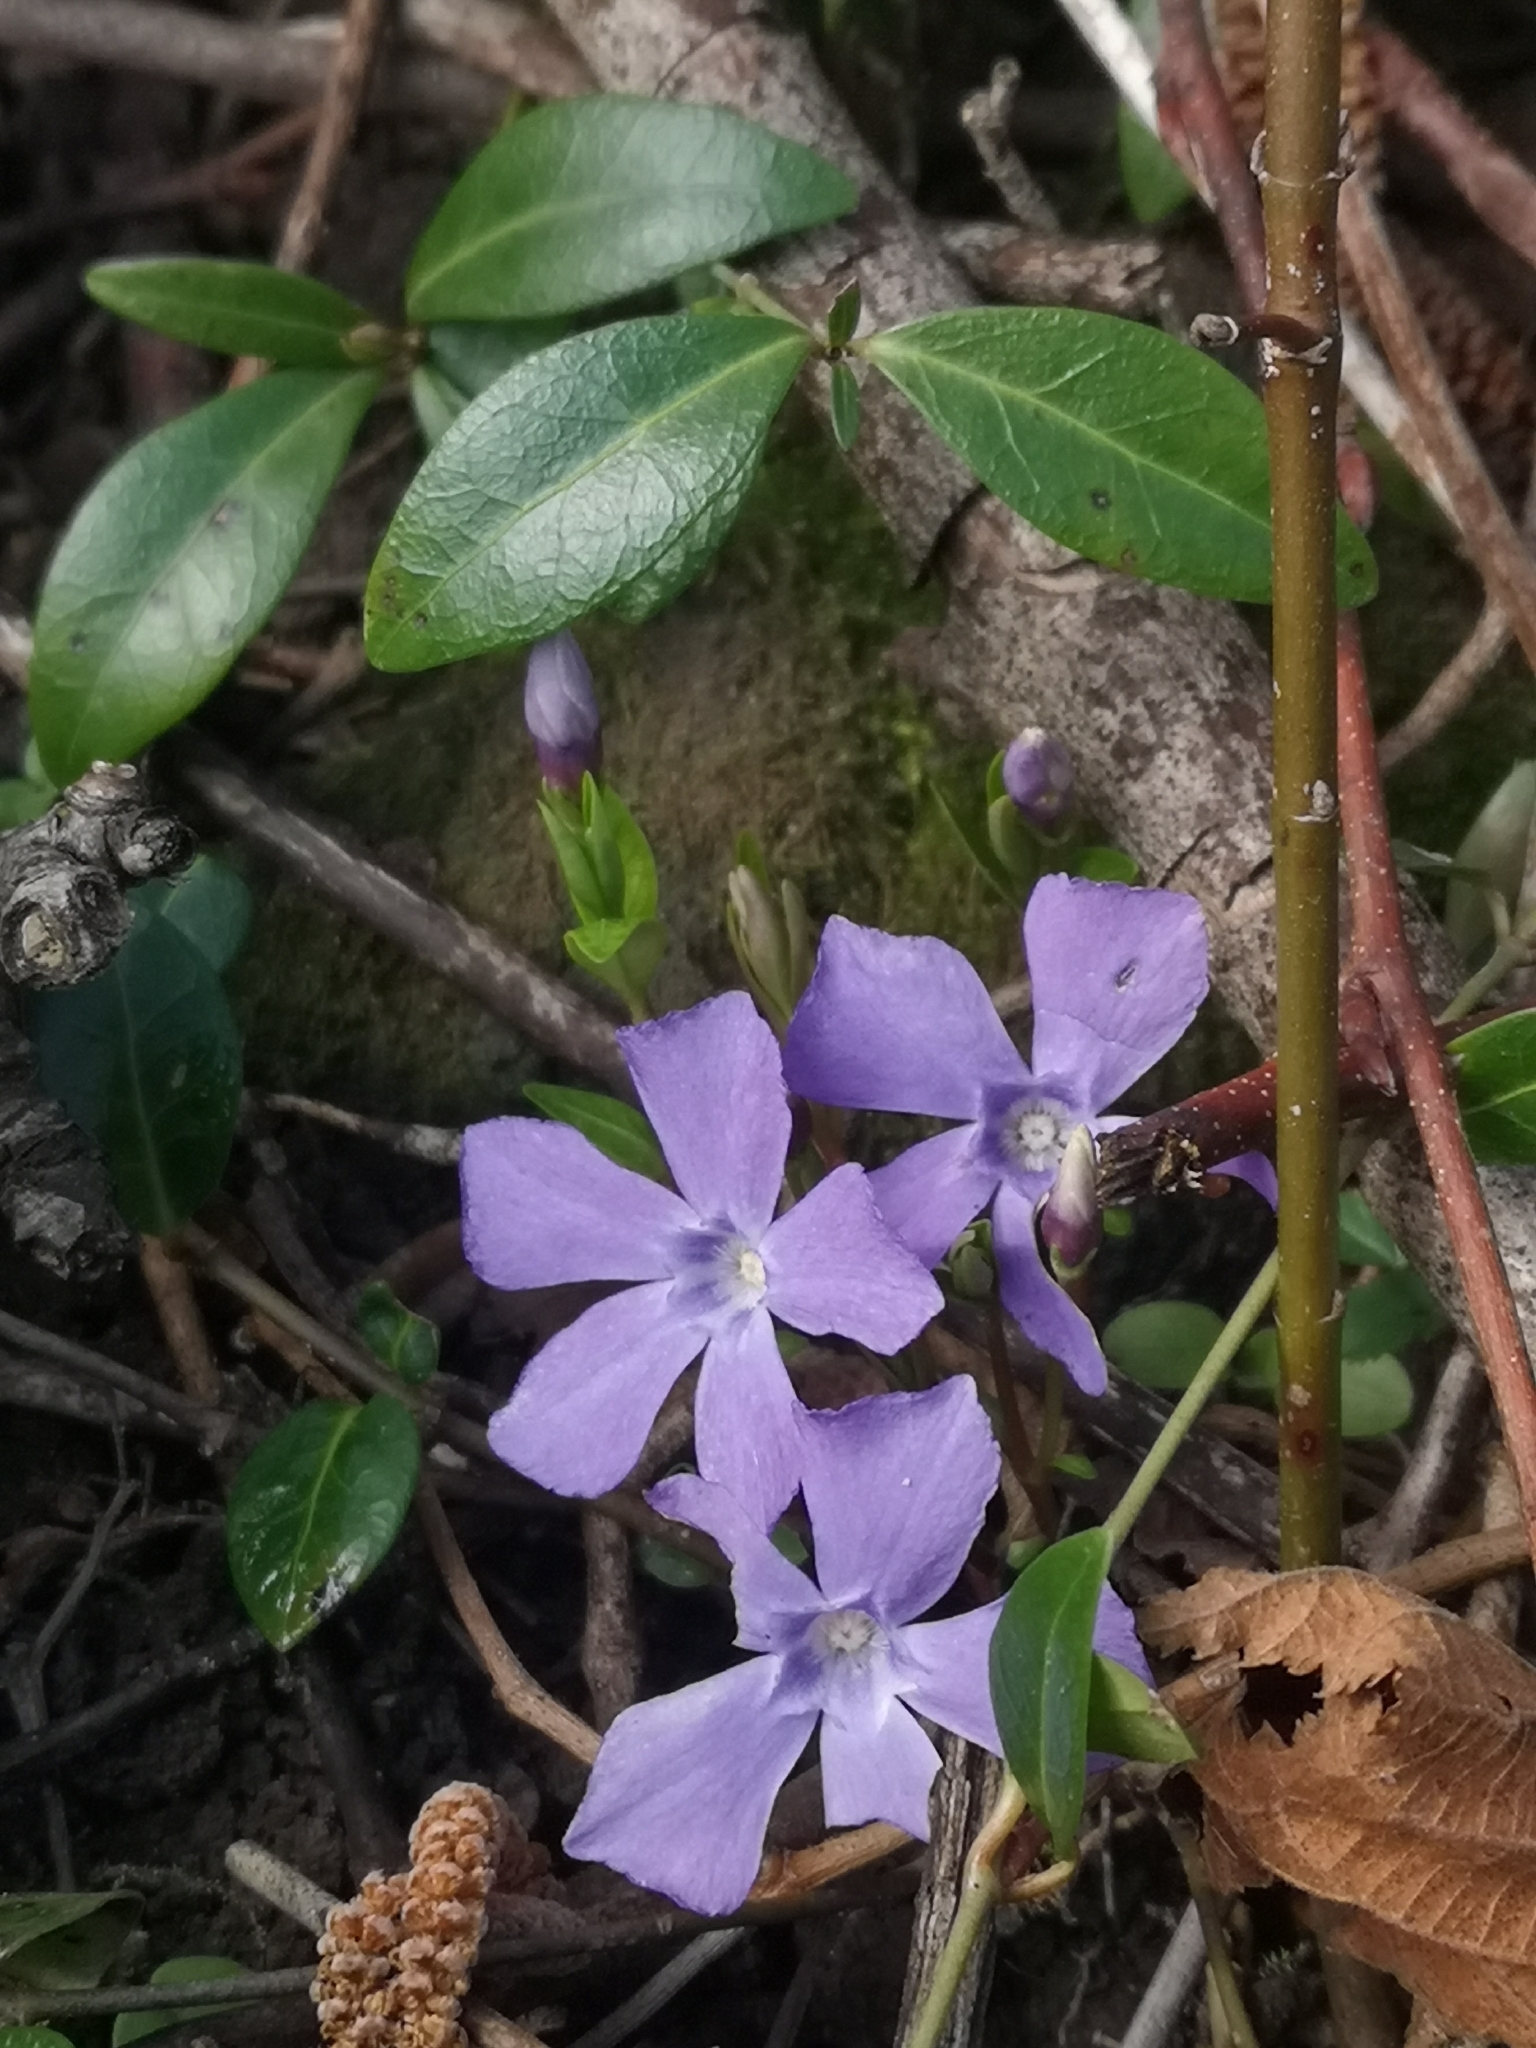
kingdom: Plantae
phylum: Tracheophyta
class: Magnoliopsida
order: Gentianales
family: Apocynaceae
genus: Vinca
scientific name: Vinca minor
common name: Lesser periwinkle
